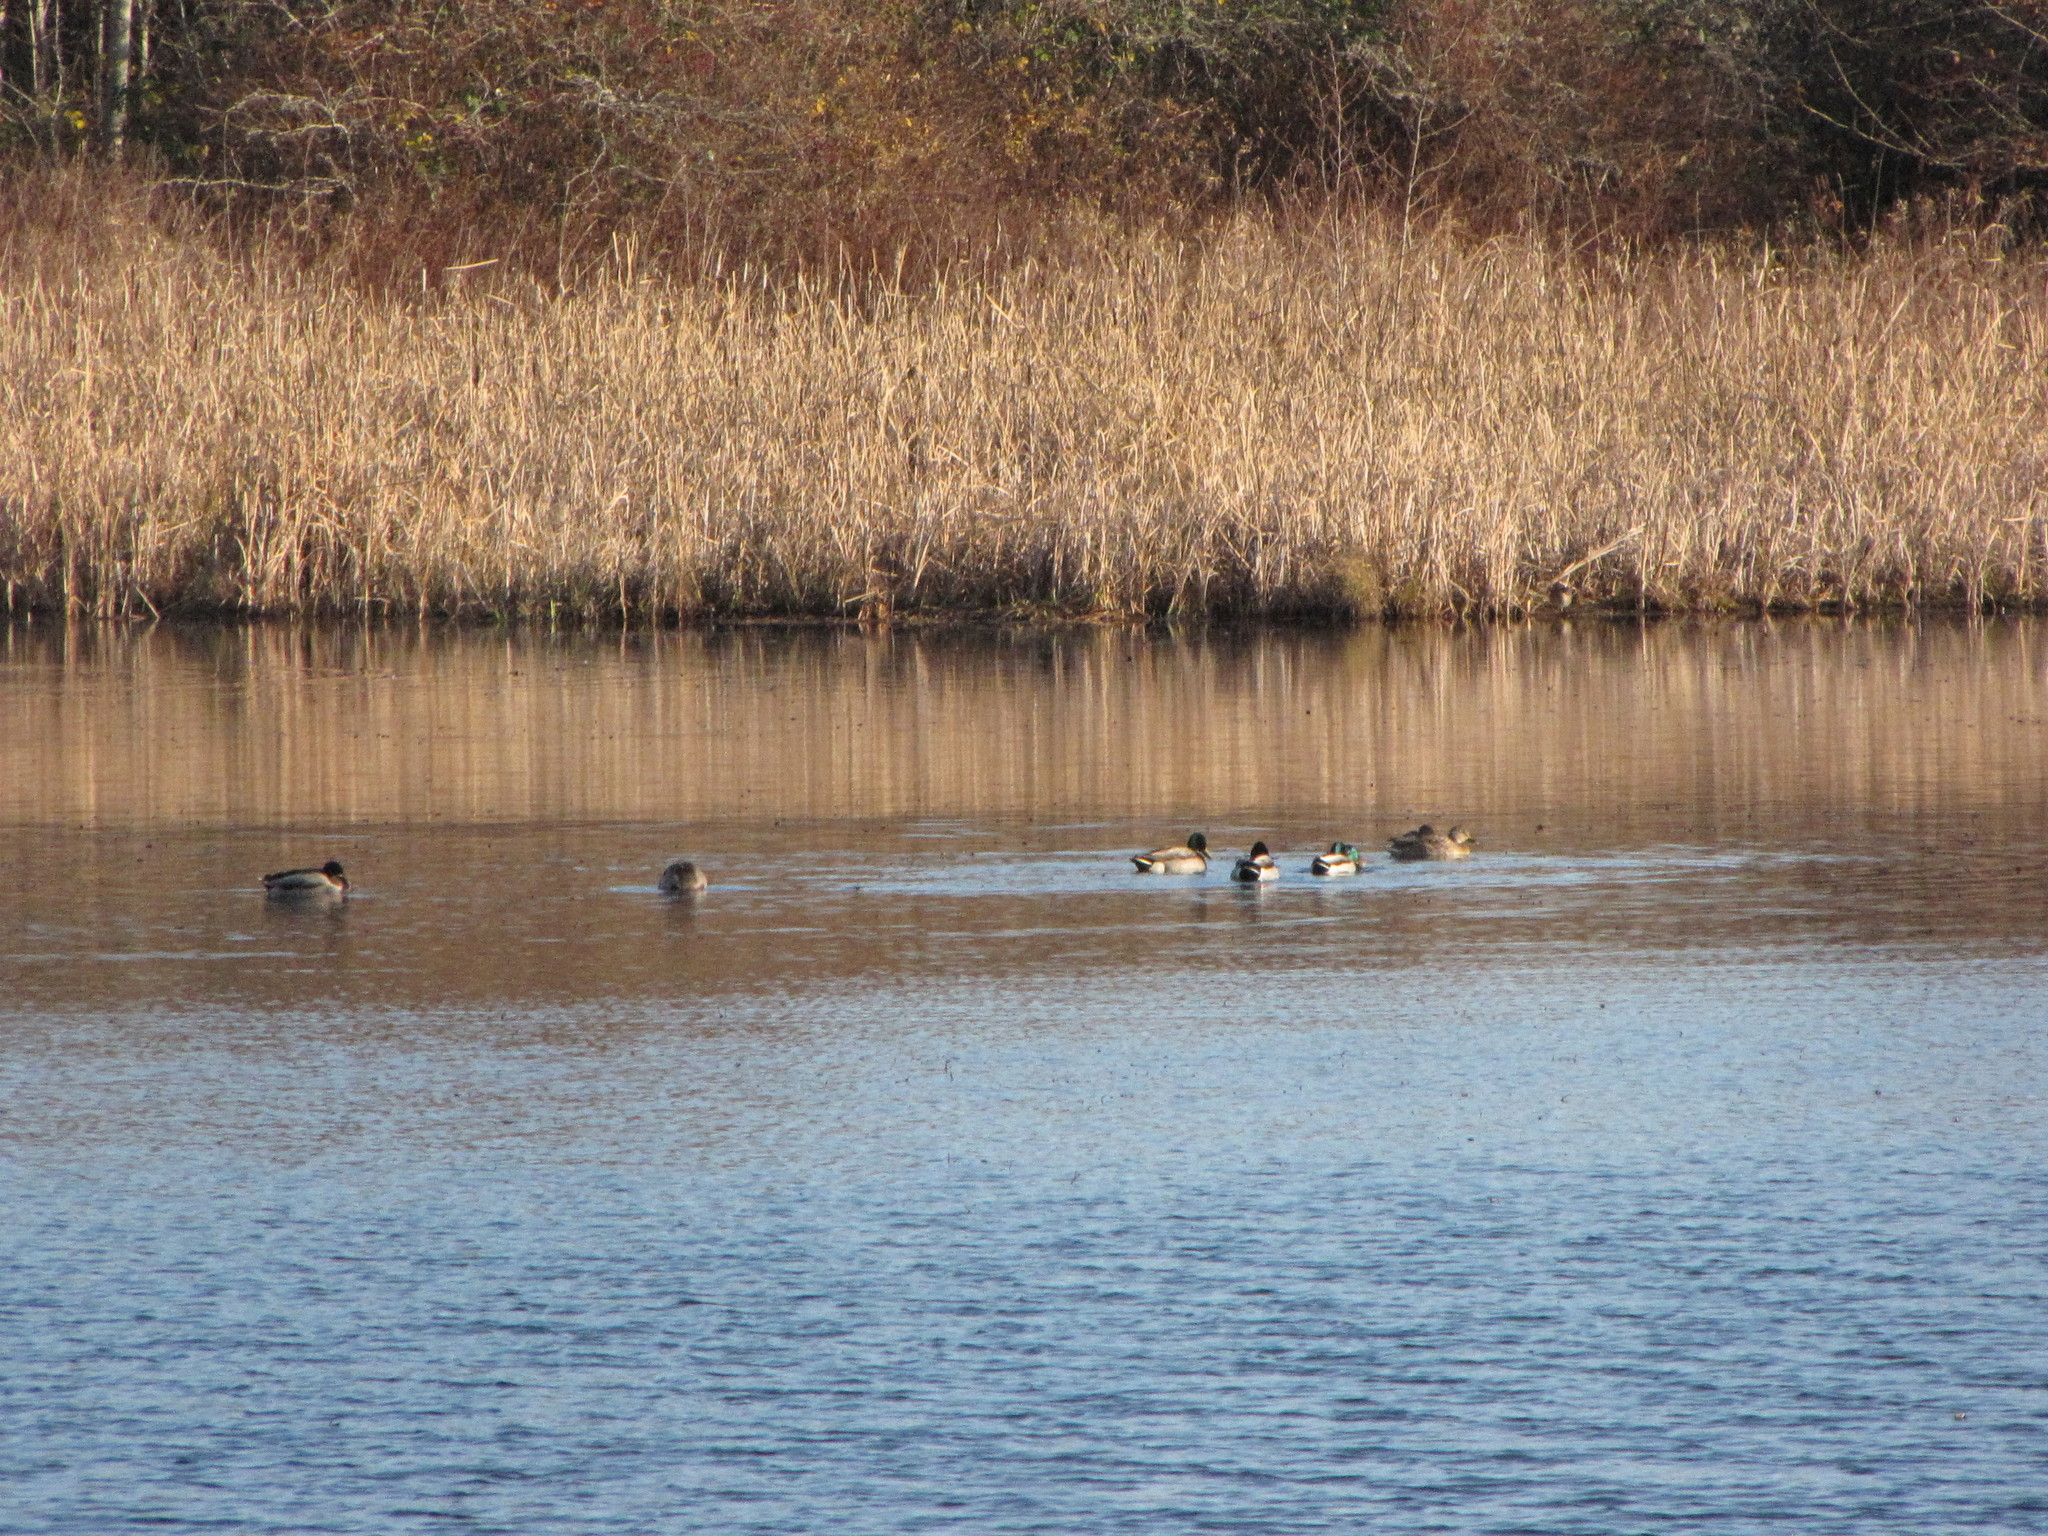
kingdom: Animalia
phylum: Chordata
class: Aves
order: Anseriformes
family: Anatidae
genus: Anas
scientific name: Anas platyrhynchos
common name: Mallard
